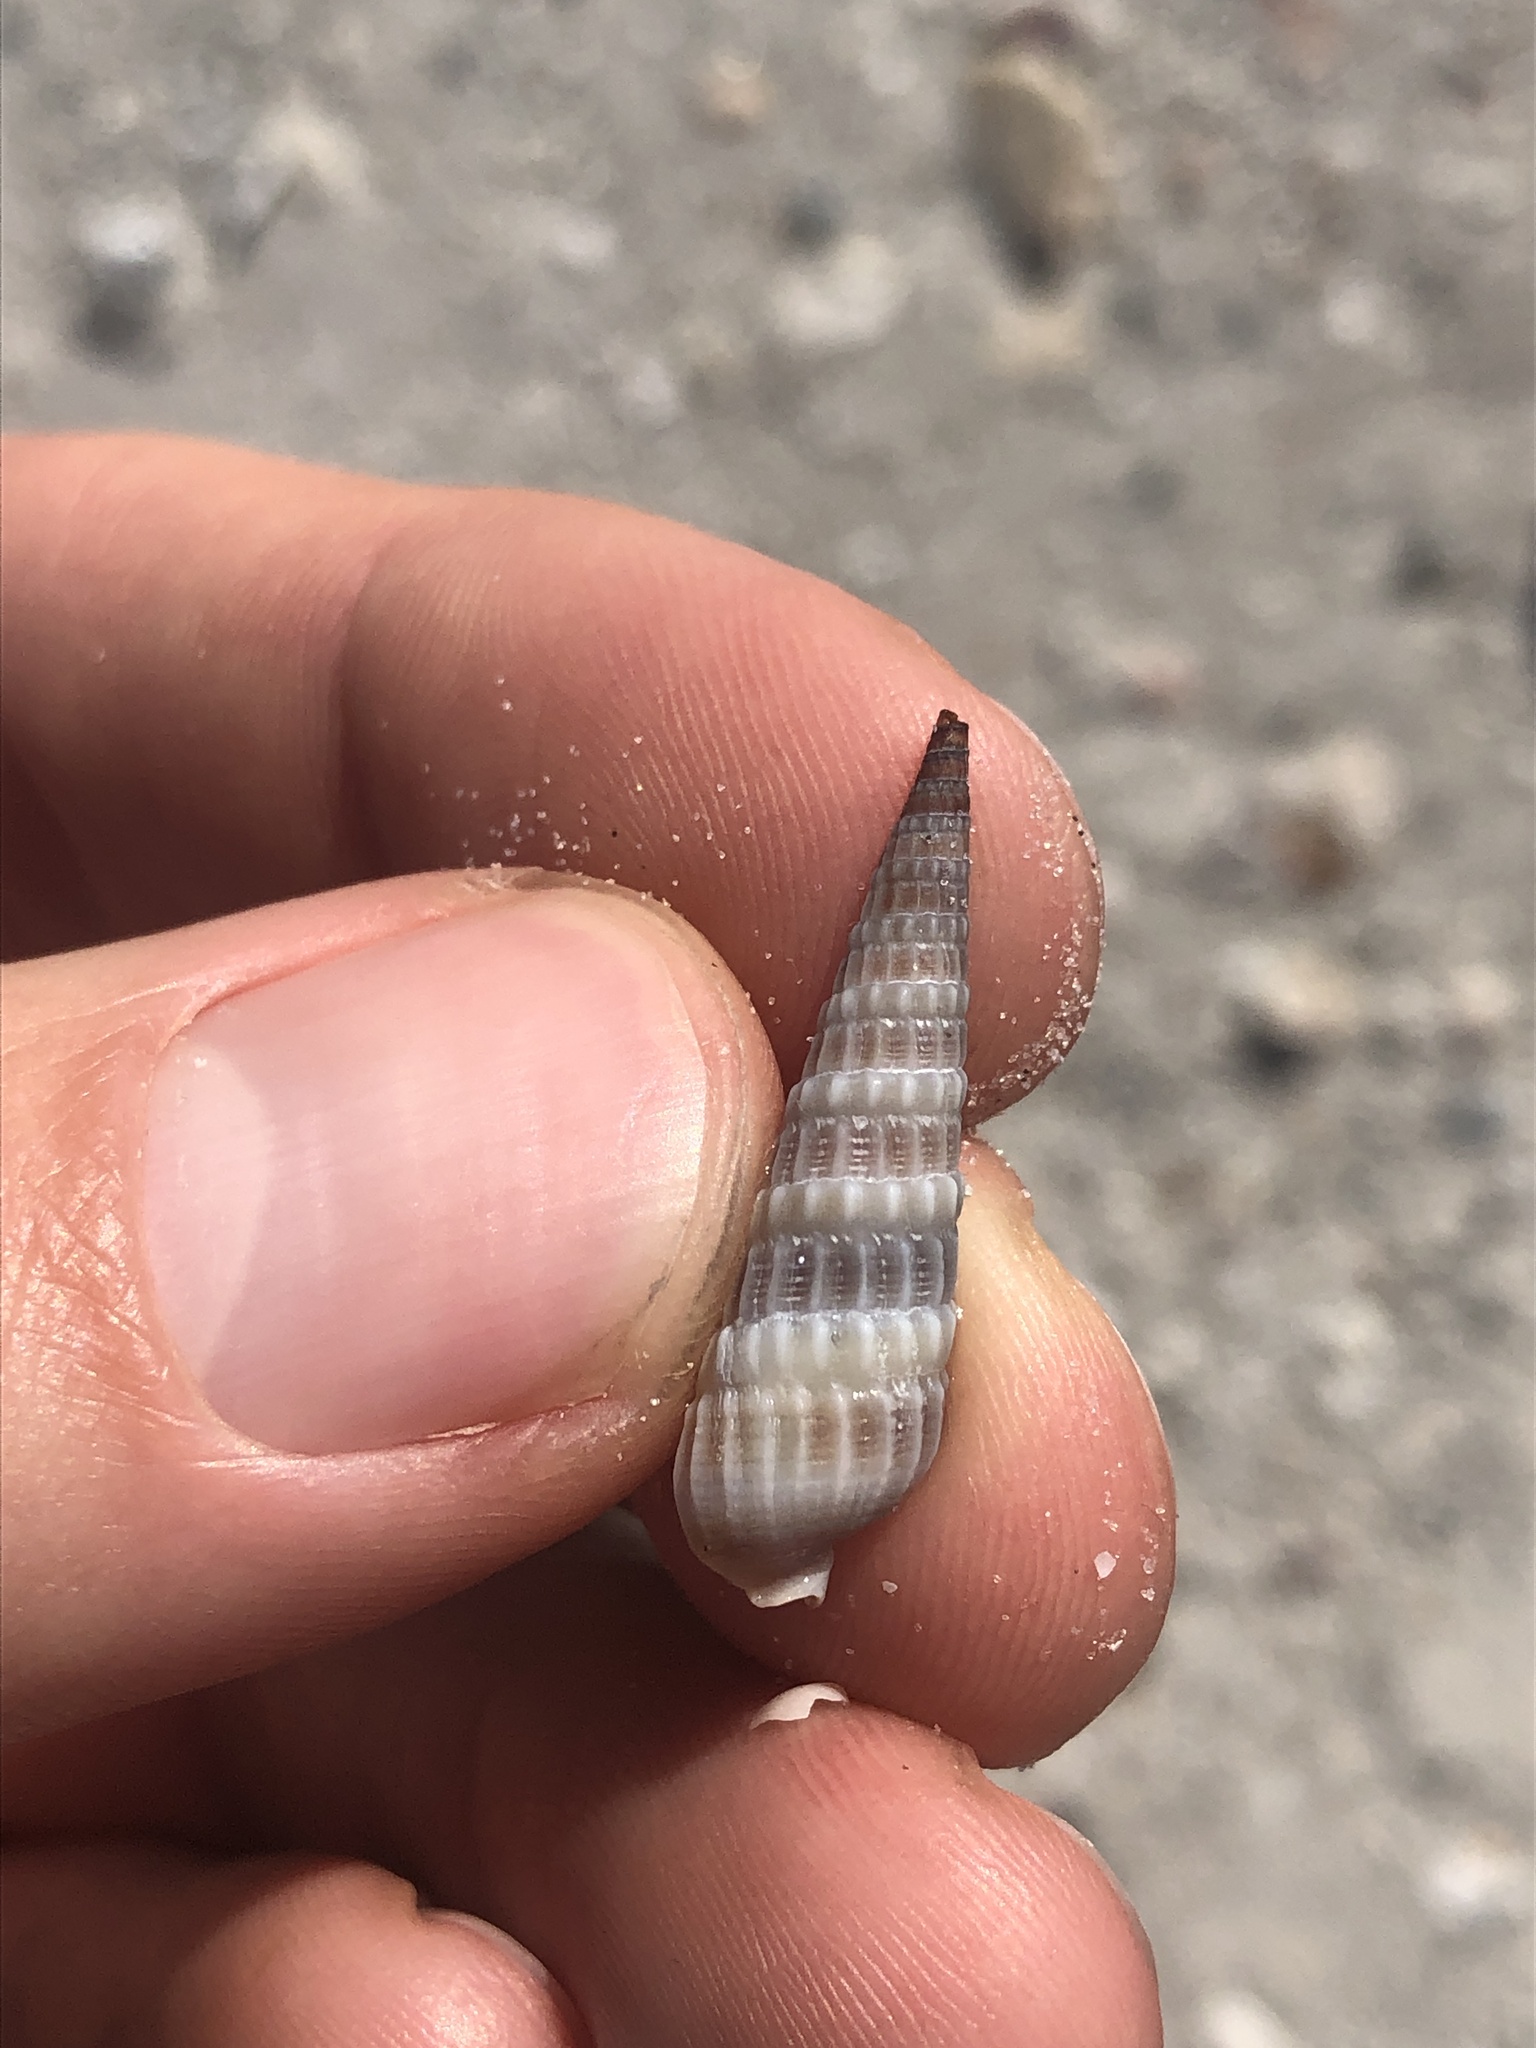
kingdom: Animalia
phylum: Mollusca
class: Gastropoda
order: Neogastropoda
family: Terebridae
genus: Neoterebra
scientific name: Neoterebra dislocata
